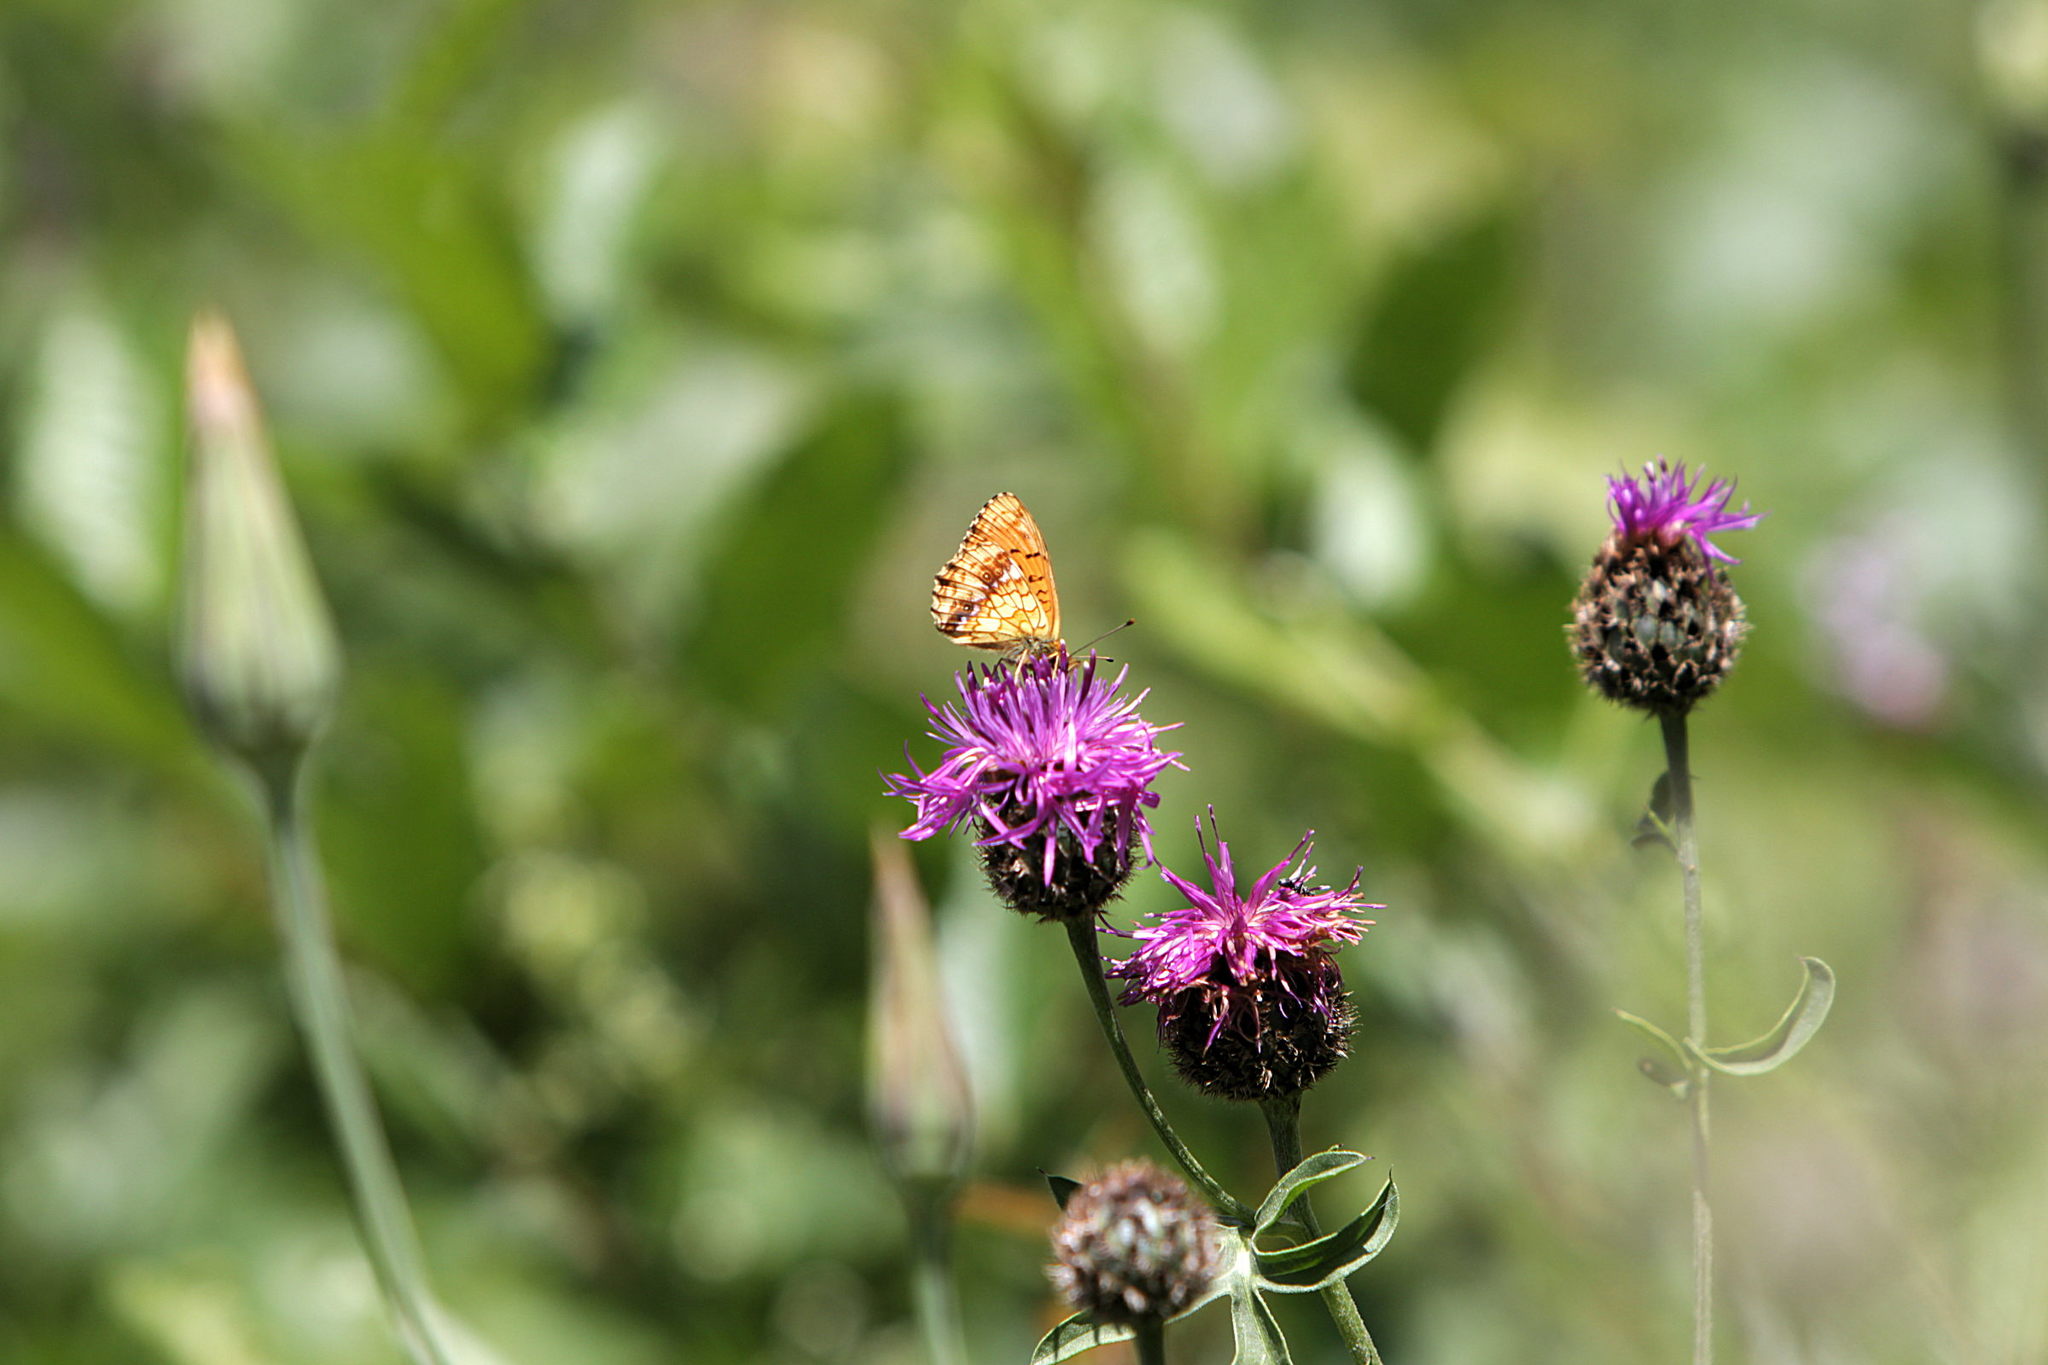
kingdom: Animalia
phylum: Arthropoda
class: Insecta
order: Lepidoptera
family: Nymphalidae
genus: Brenthis
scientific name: Brenthis ino
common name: Lesser marbled fritillary
